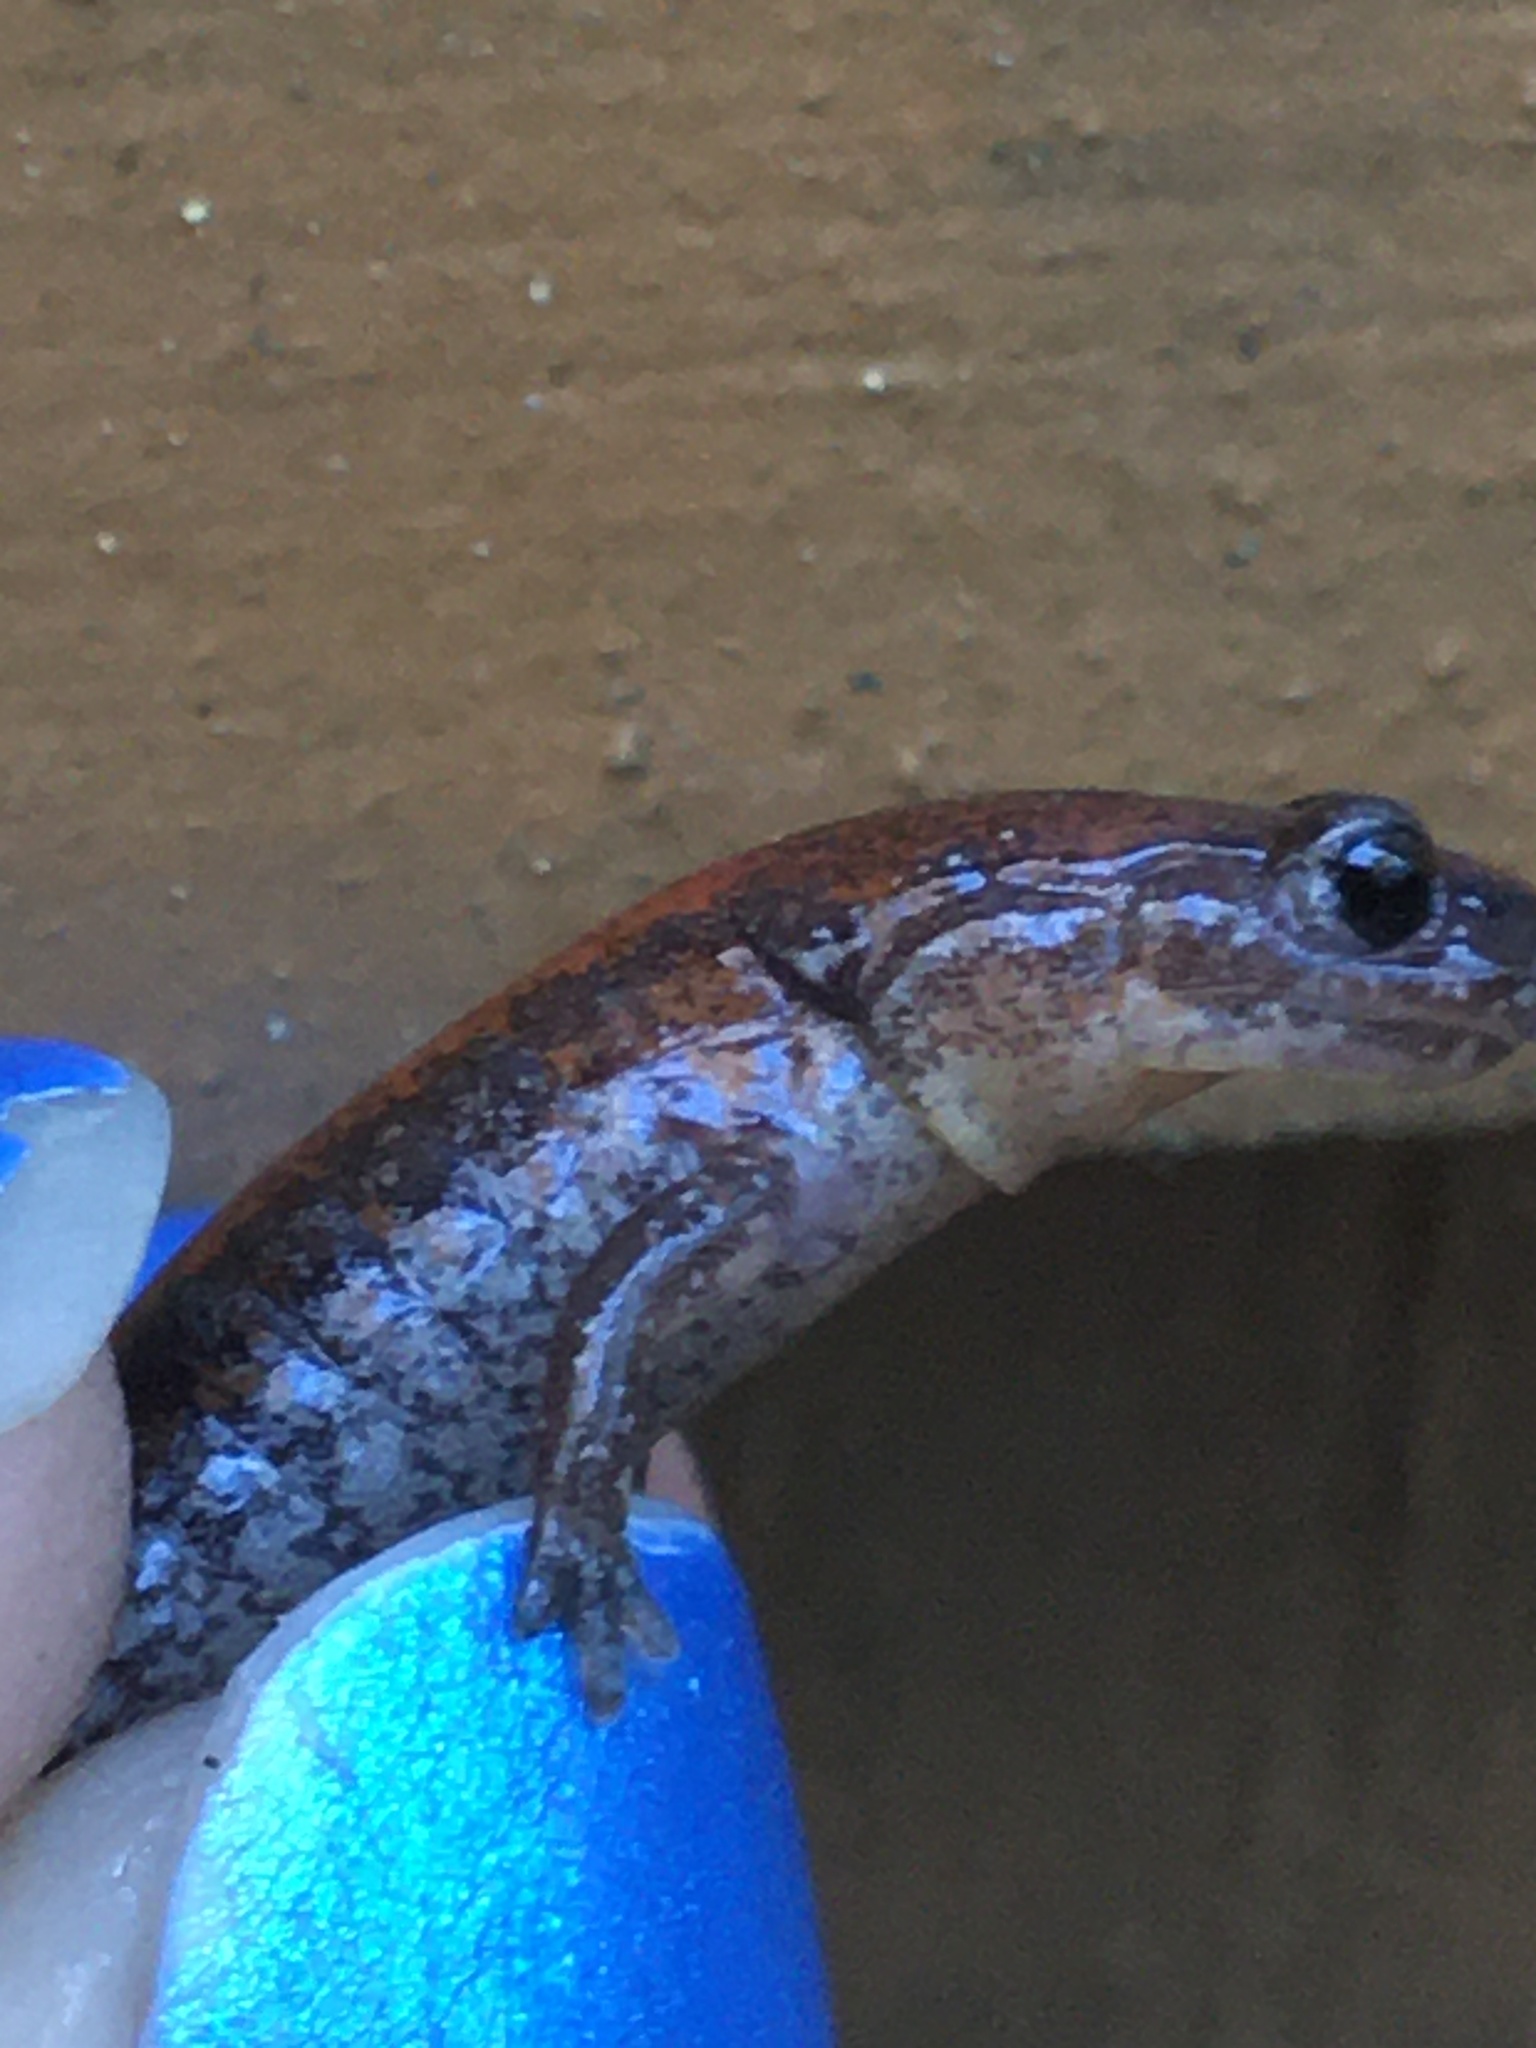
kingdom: Animalia
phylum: Chordata
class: Amphibia
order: Caudata
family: Plethodontidae
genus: Plethodon
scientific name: Plethodon cinereus
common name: Redback salamander
